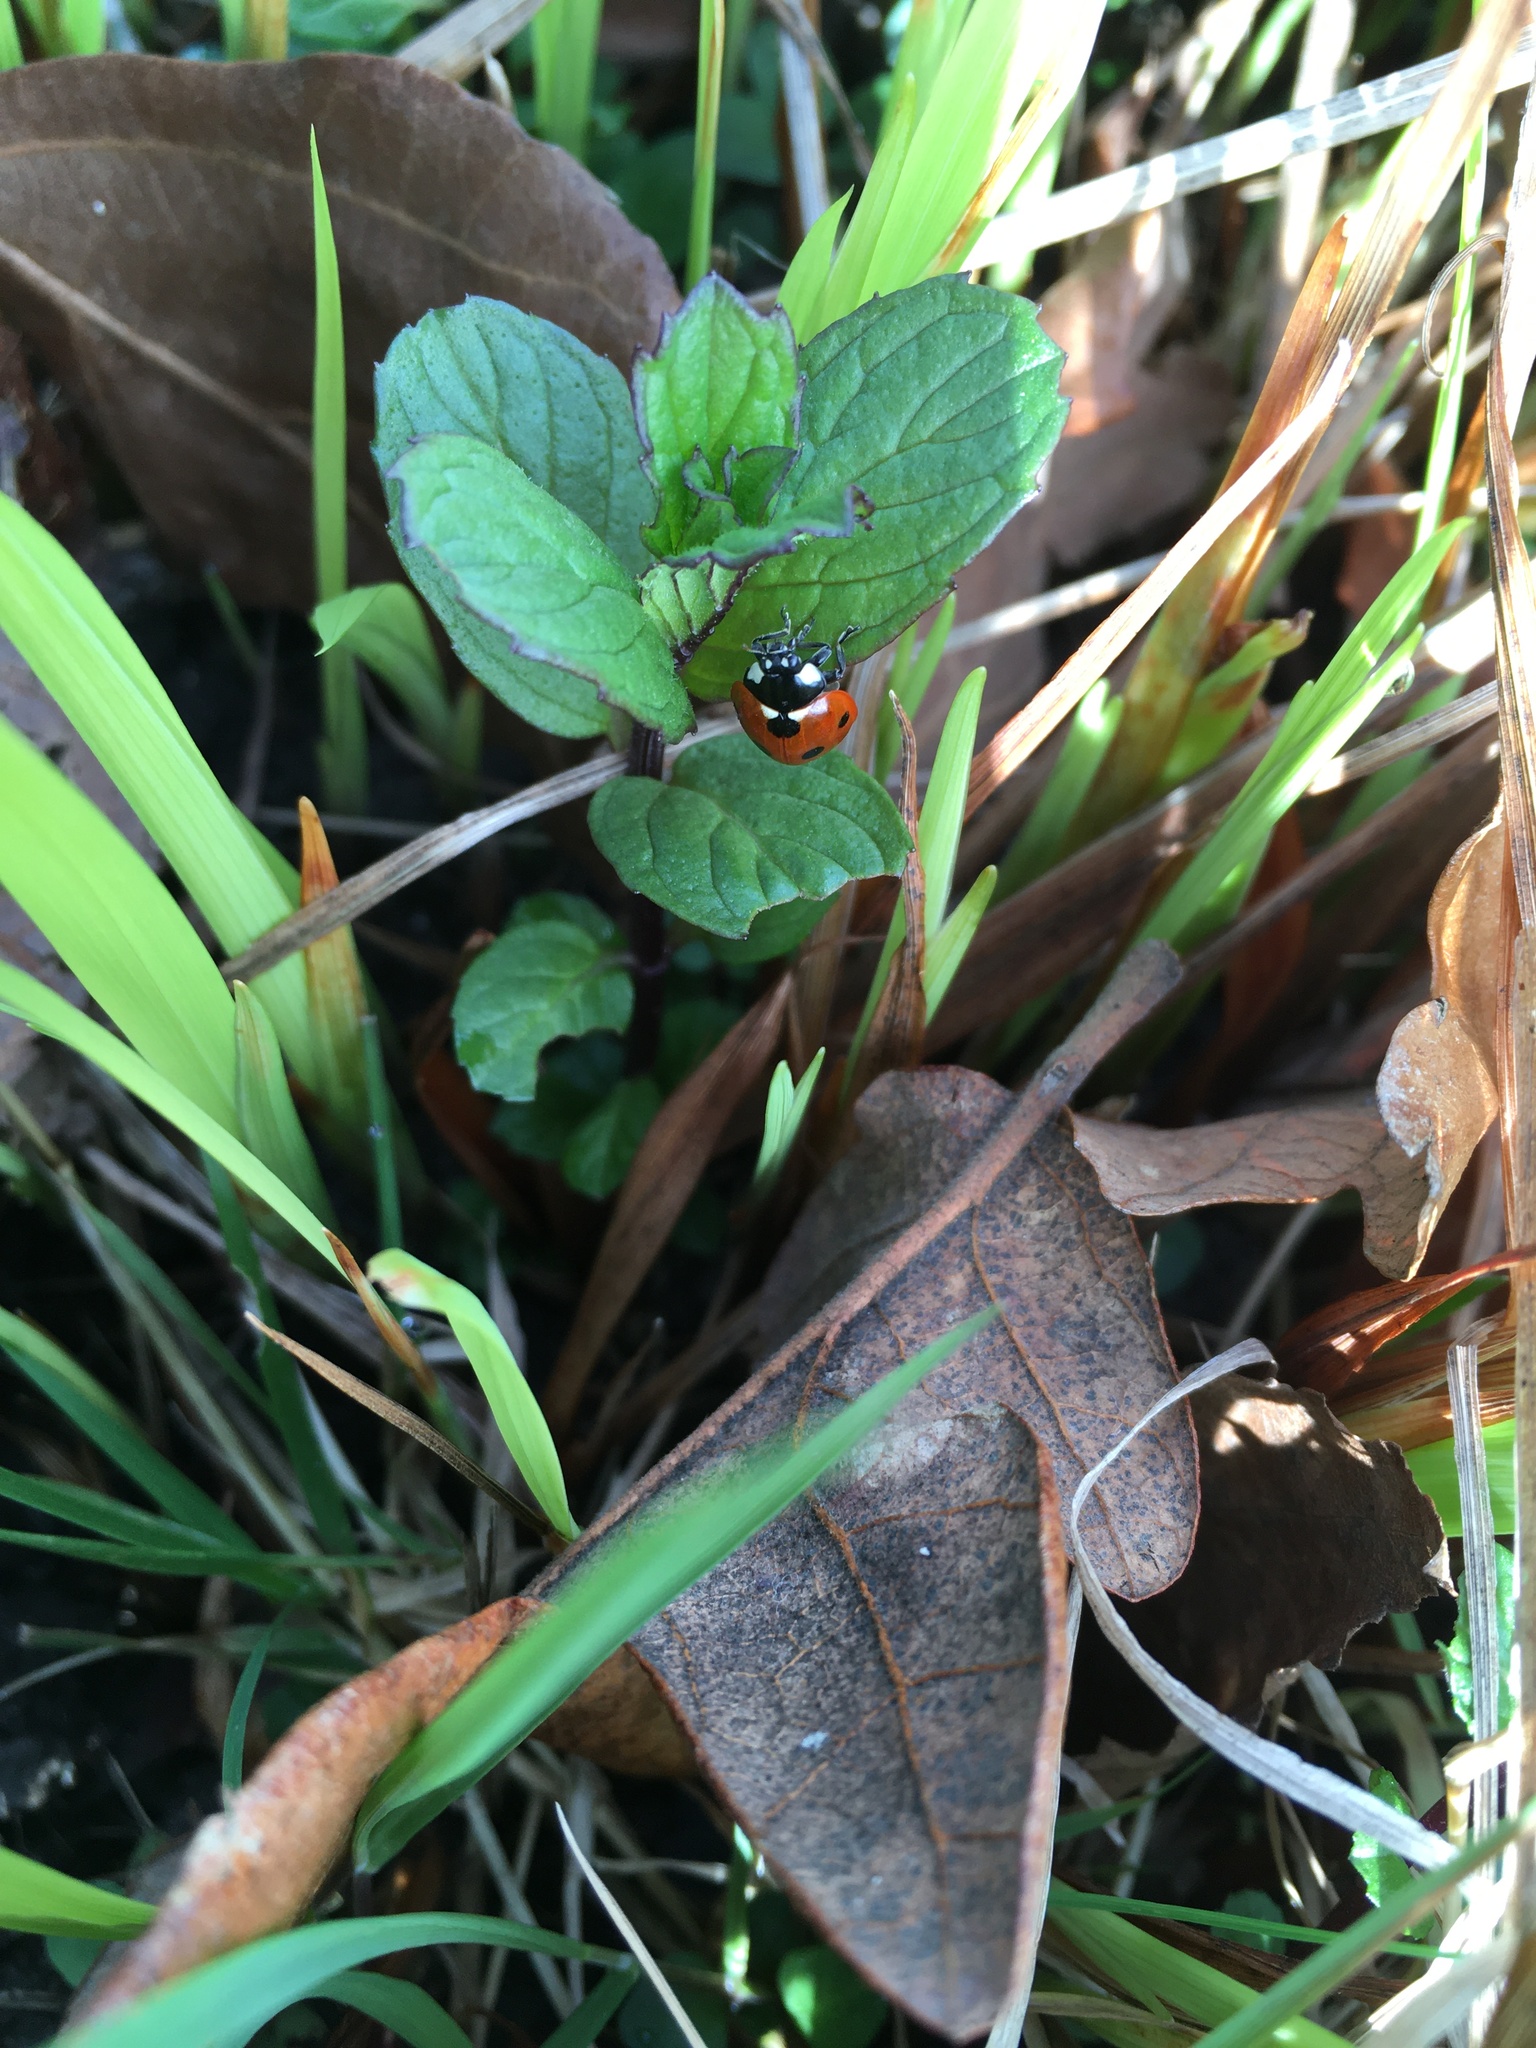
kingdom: Animalia
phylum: Arthropoda
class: Insecta
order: Coleoptera
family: Coccinellidae
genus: Coccinella
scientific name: Coccinella septempunctata
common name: Sevenspotted lady beetle
